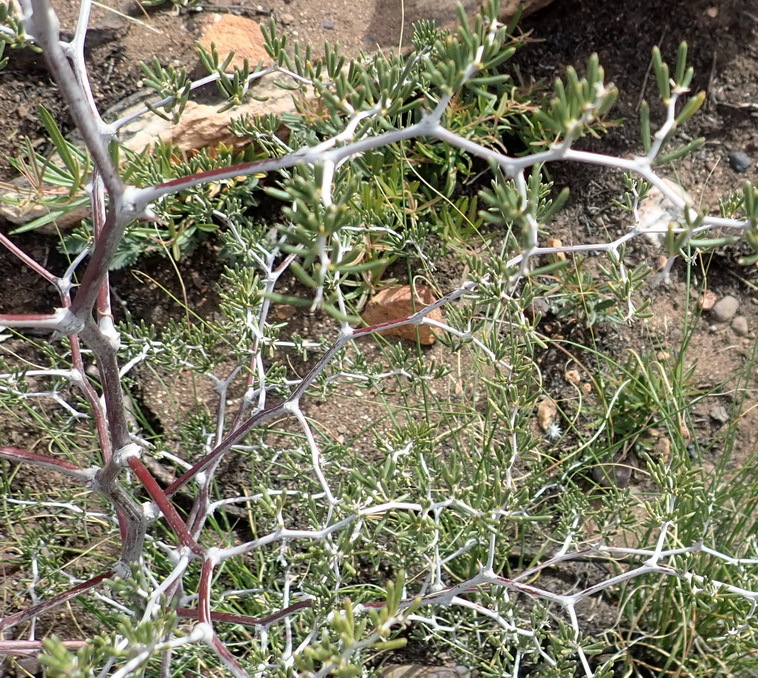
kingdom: Plantae
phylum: Tracheophyta
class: Liliopsida
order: Asparagales
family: Asparagaceae
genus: Asparagus
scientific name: Asparagus lignosus
